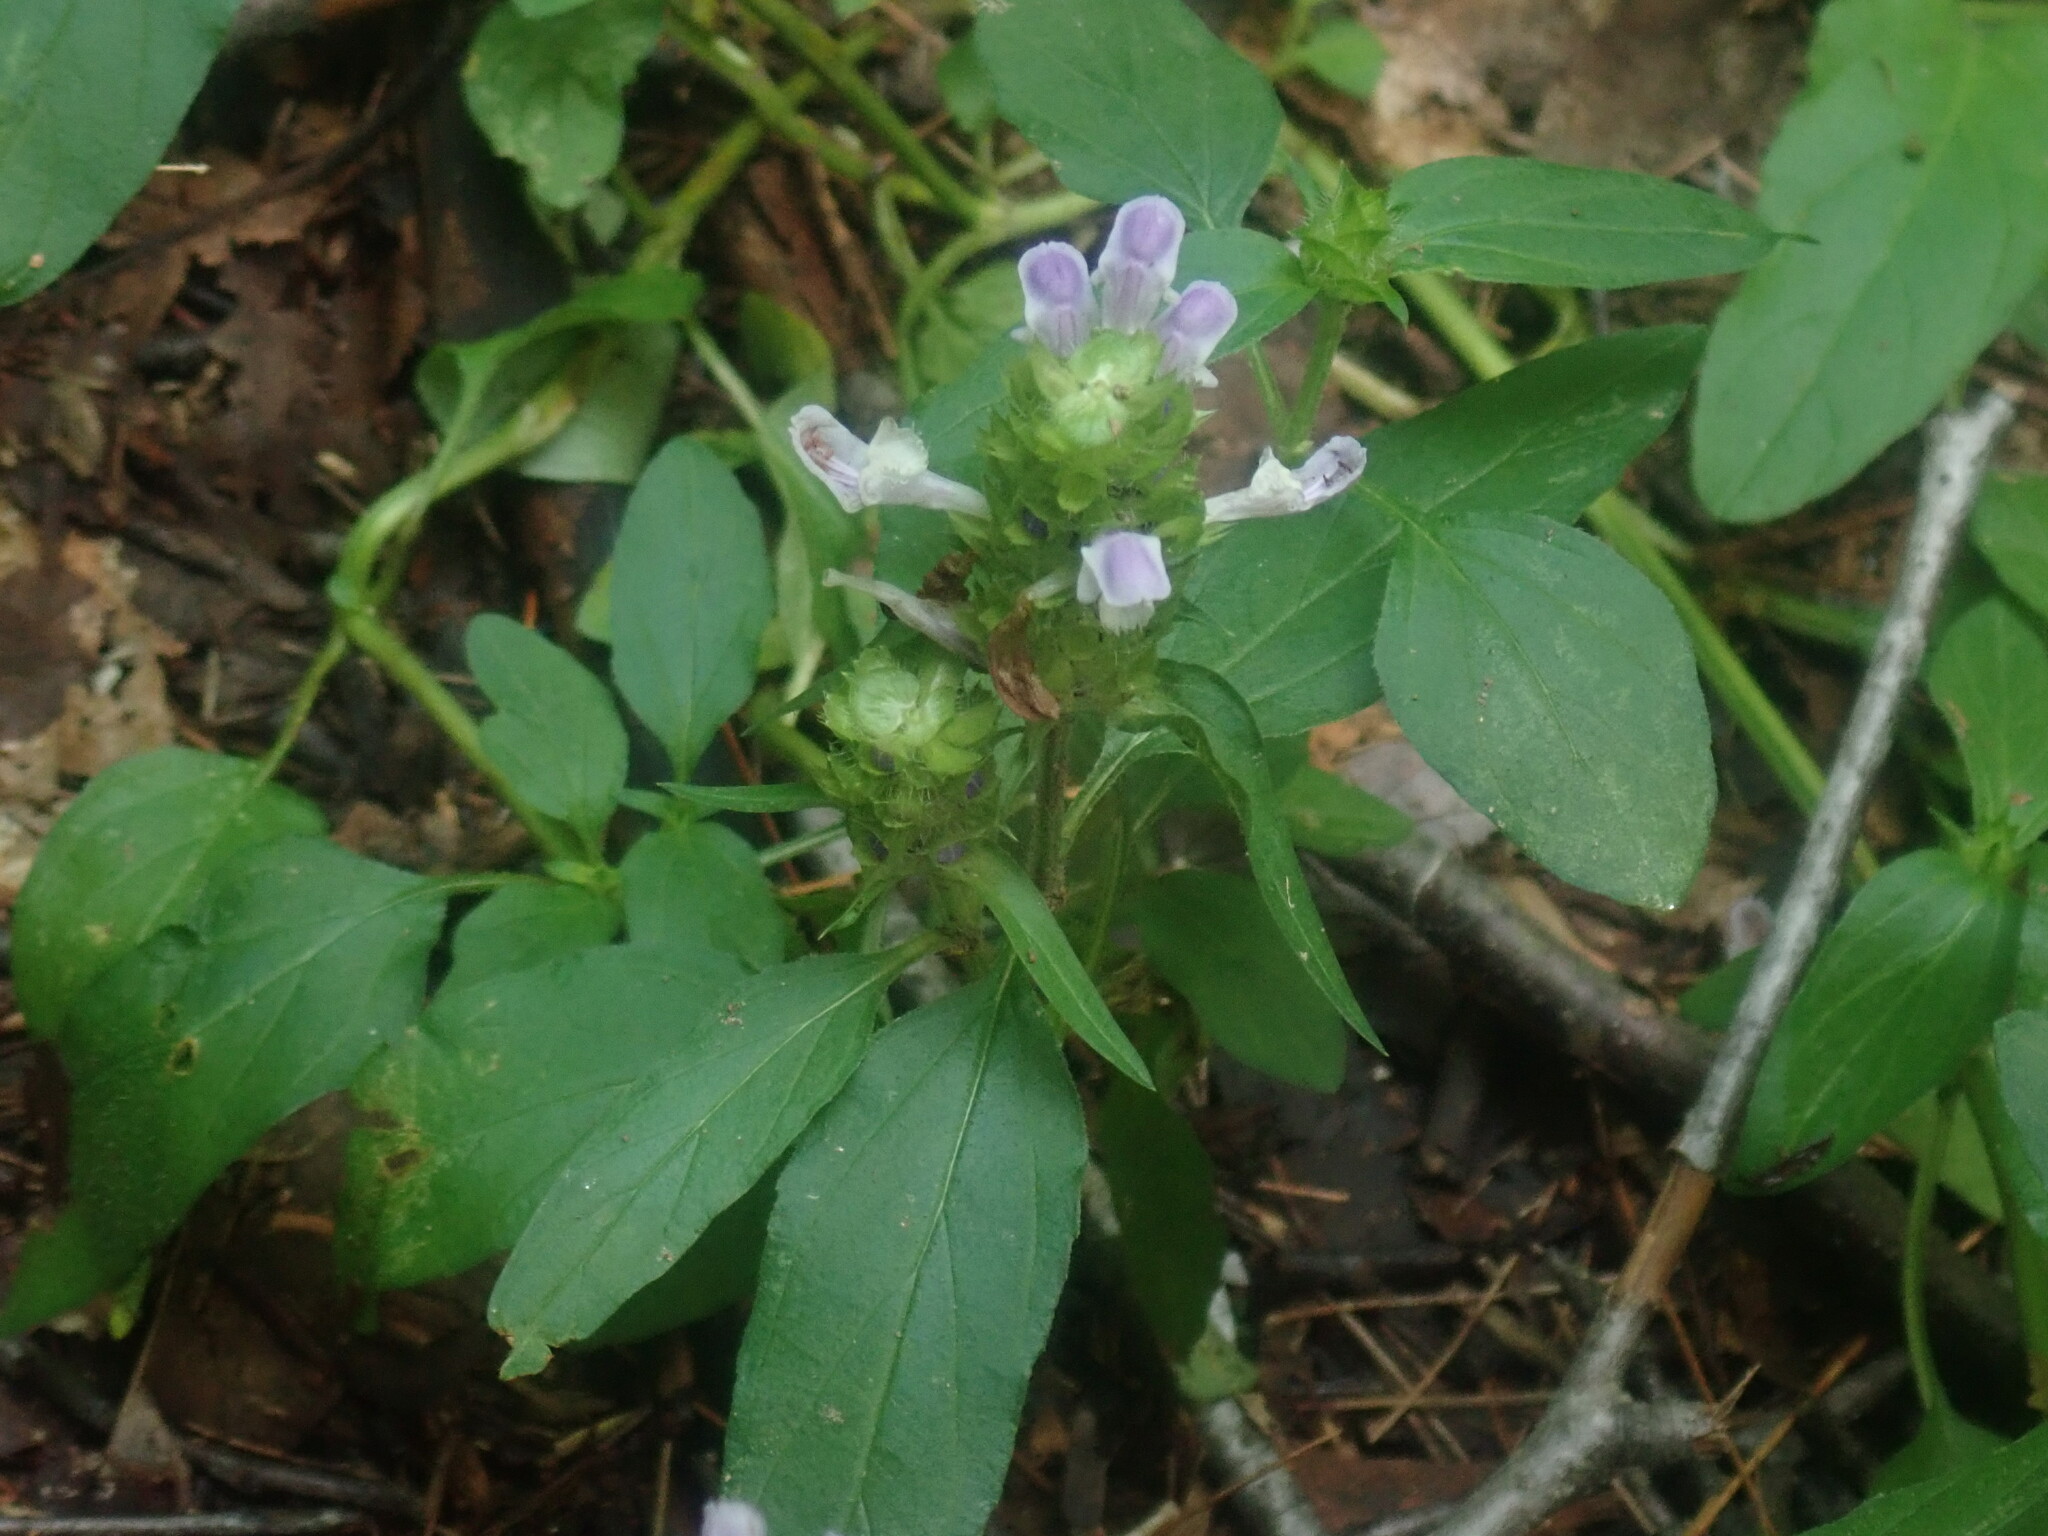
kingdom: Plantae
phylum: Tracheophyta
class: Magnoliopsida
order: Lamiales
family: Lamiaceae
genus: Prunella
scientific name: Prunella vulgaris
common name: Heal-all
